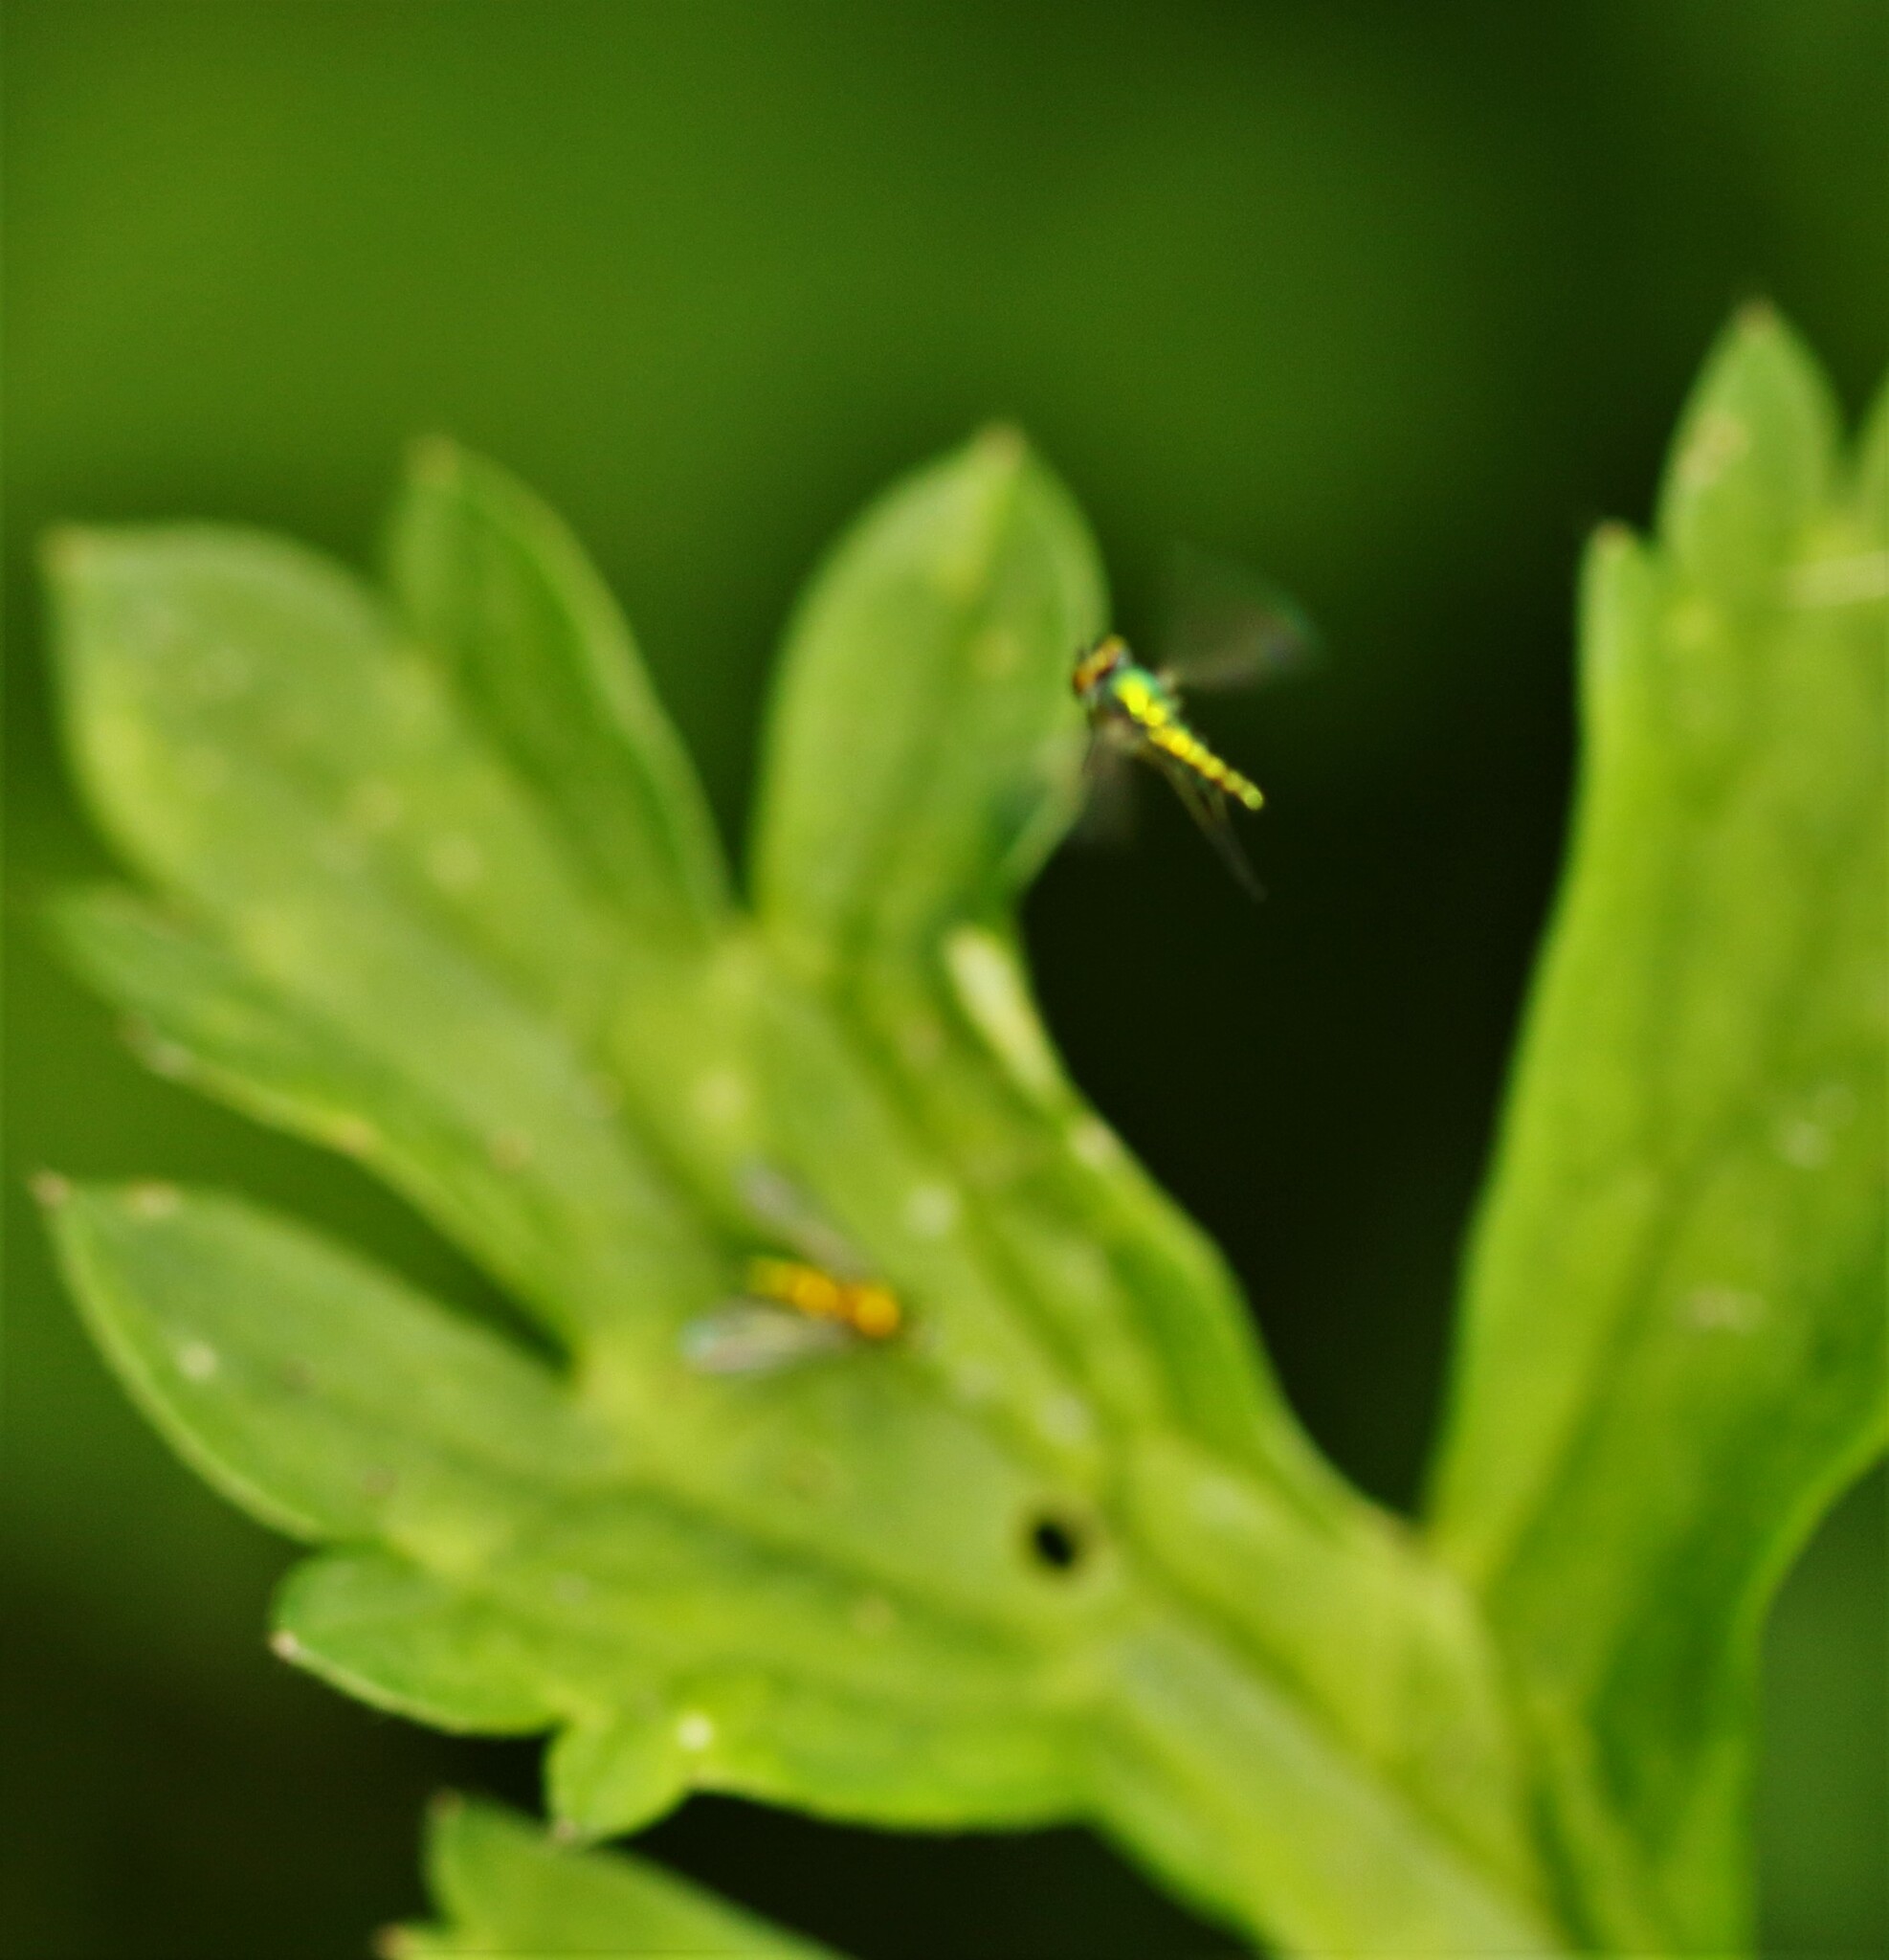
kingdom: Animalia
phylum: Arthropoda
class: Insecta
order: Diptera
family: Dolichopodidae
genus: Condylostylus
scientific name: Condylostylus caudatus
